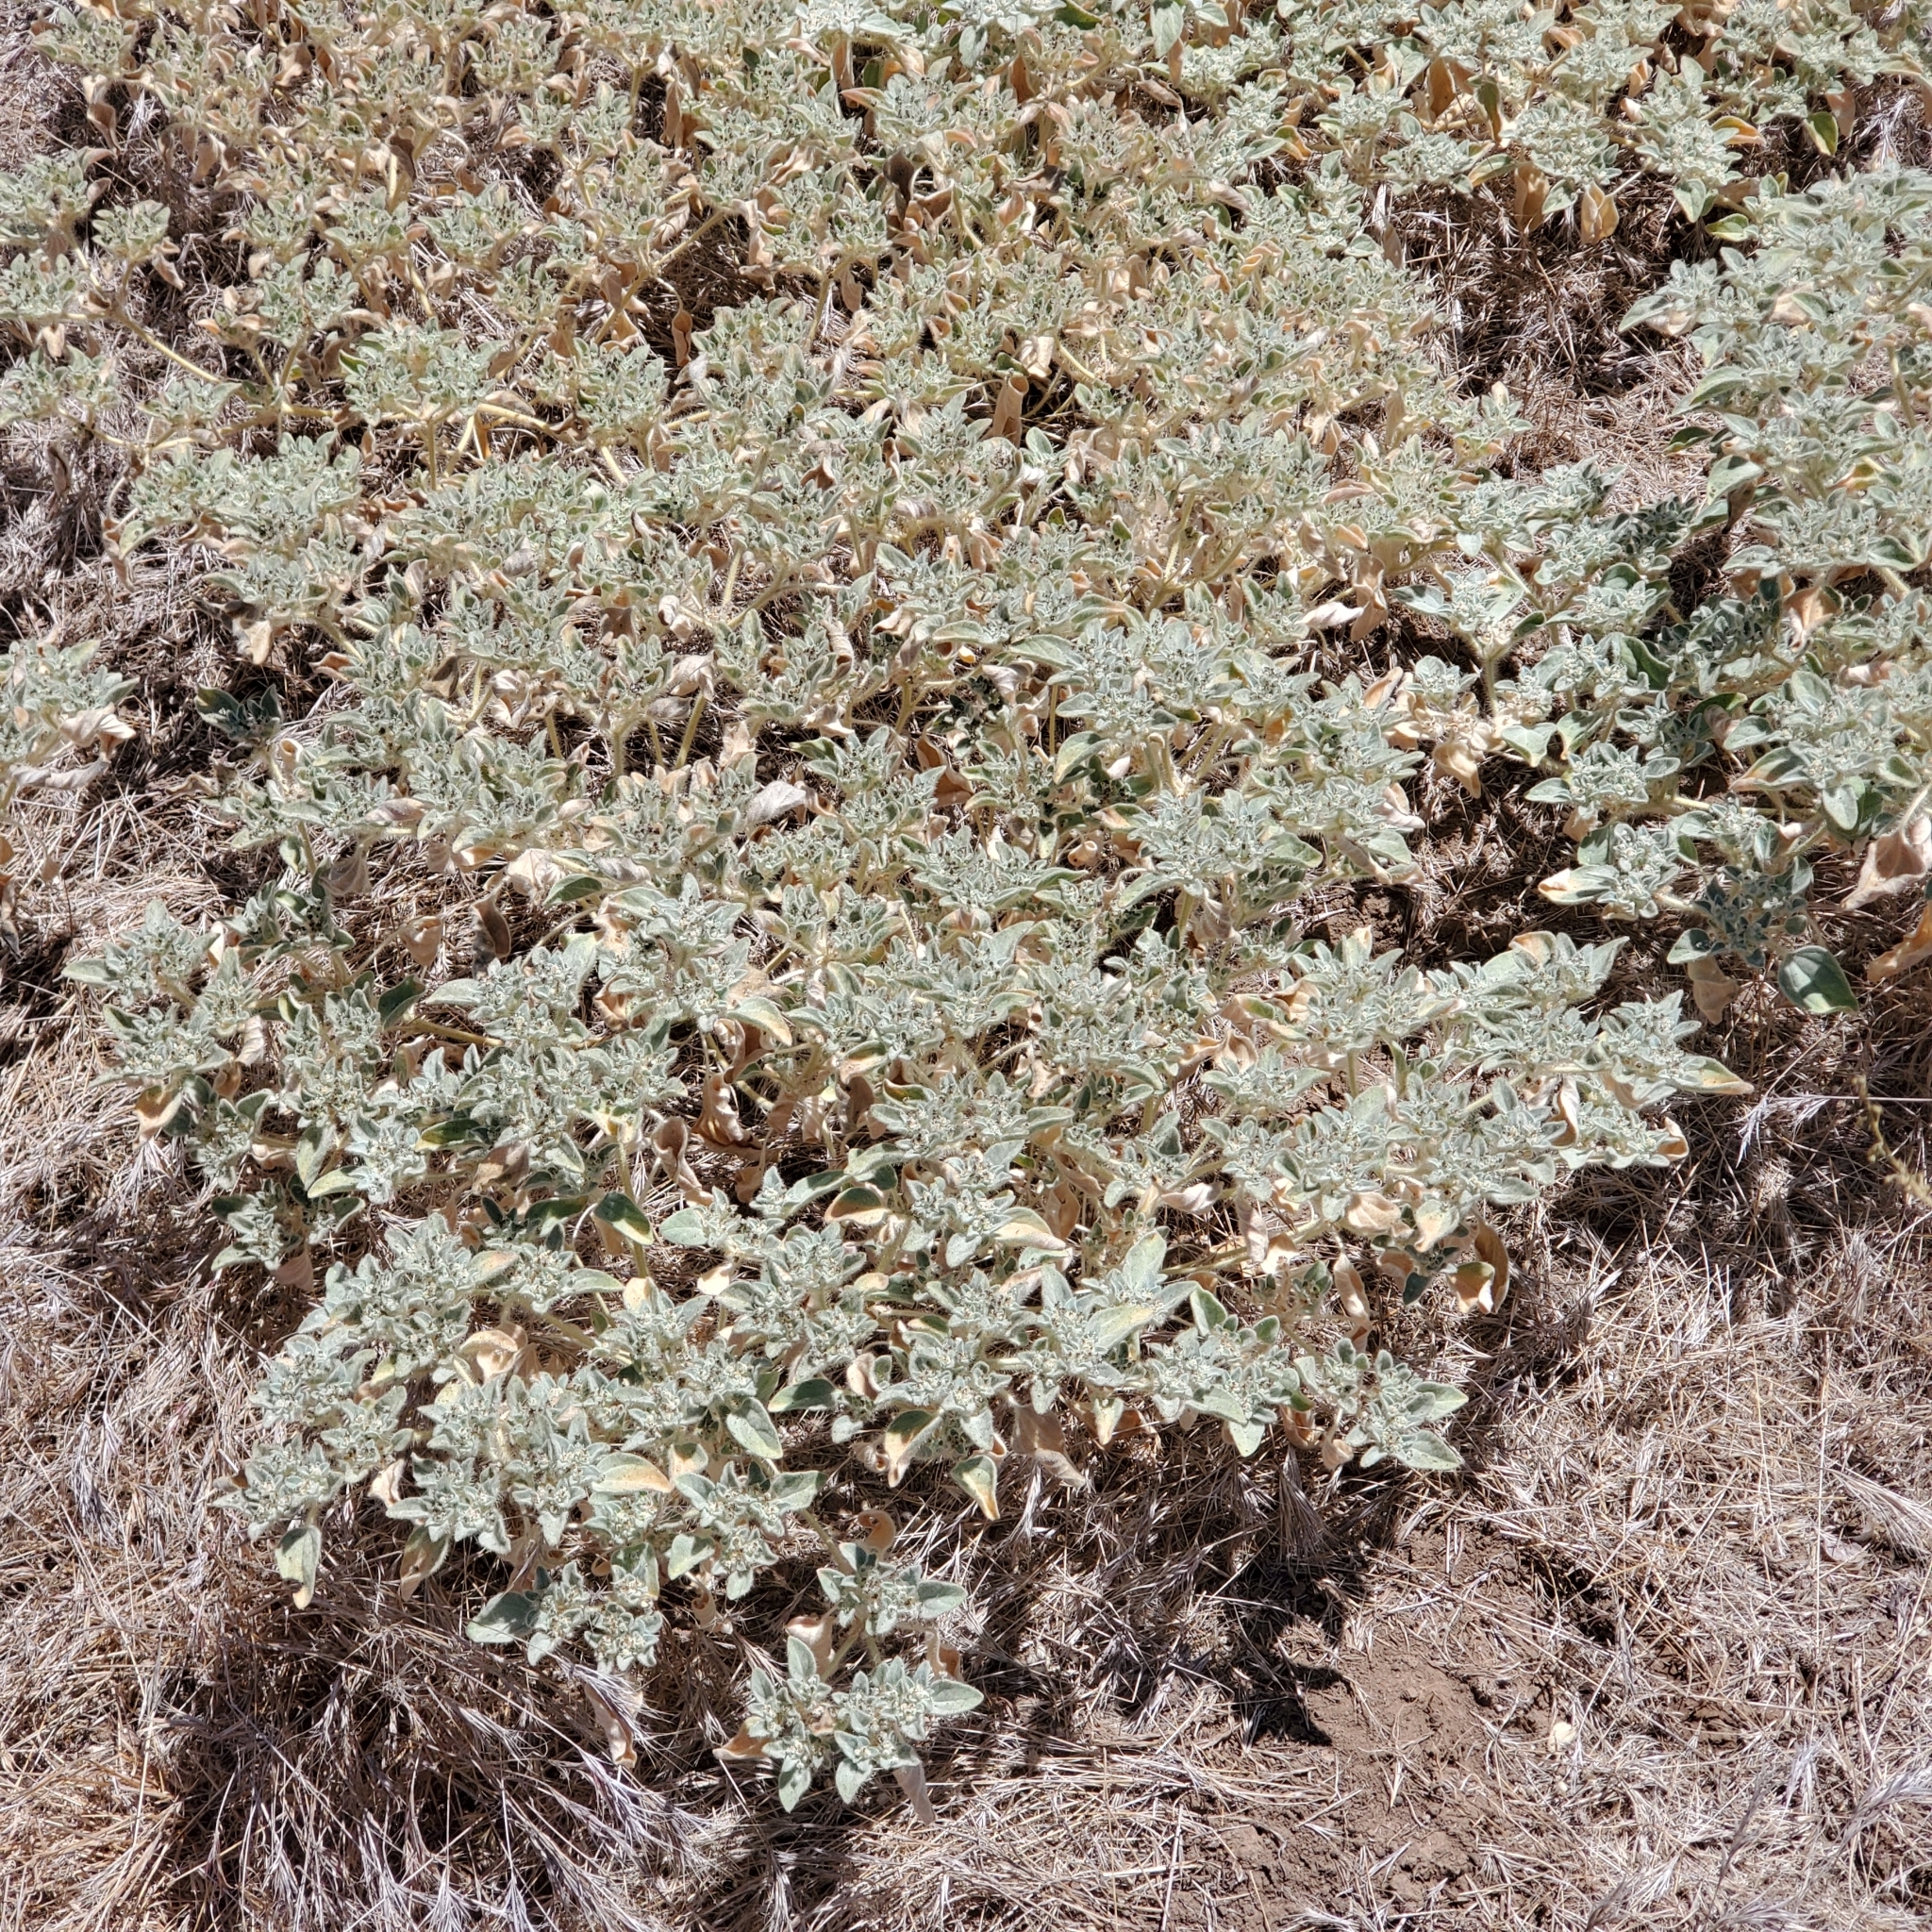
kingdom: Plantae
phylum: Tracheophyta
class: Magnoliopsida
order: Malpighiales
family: Euphorbiaceae
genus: Croton
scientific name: Croton setiger
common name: Dove weed
